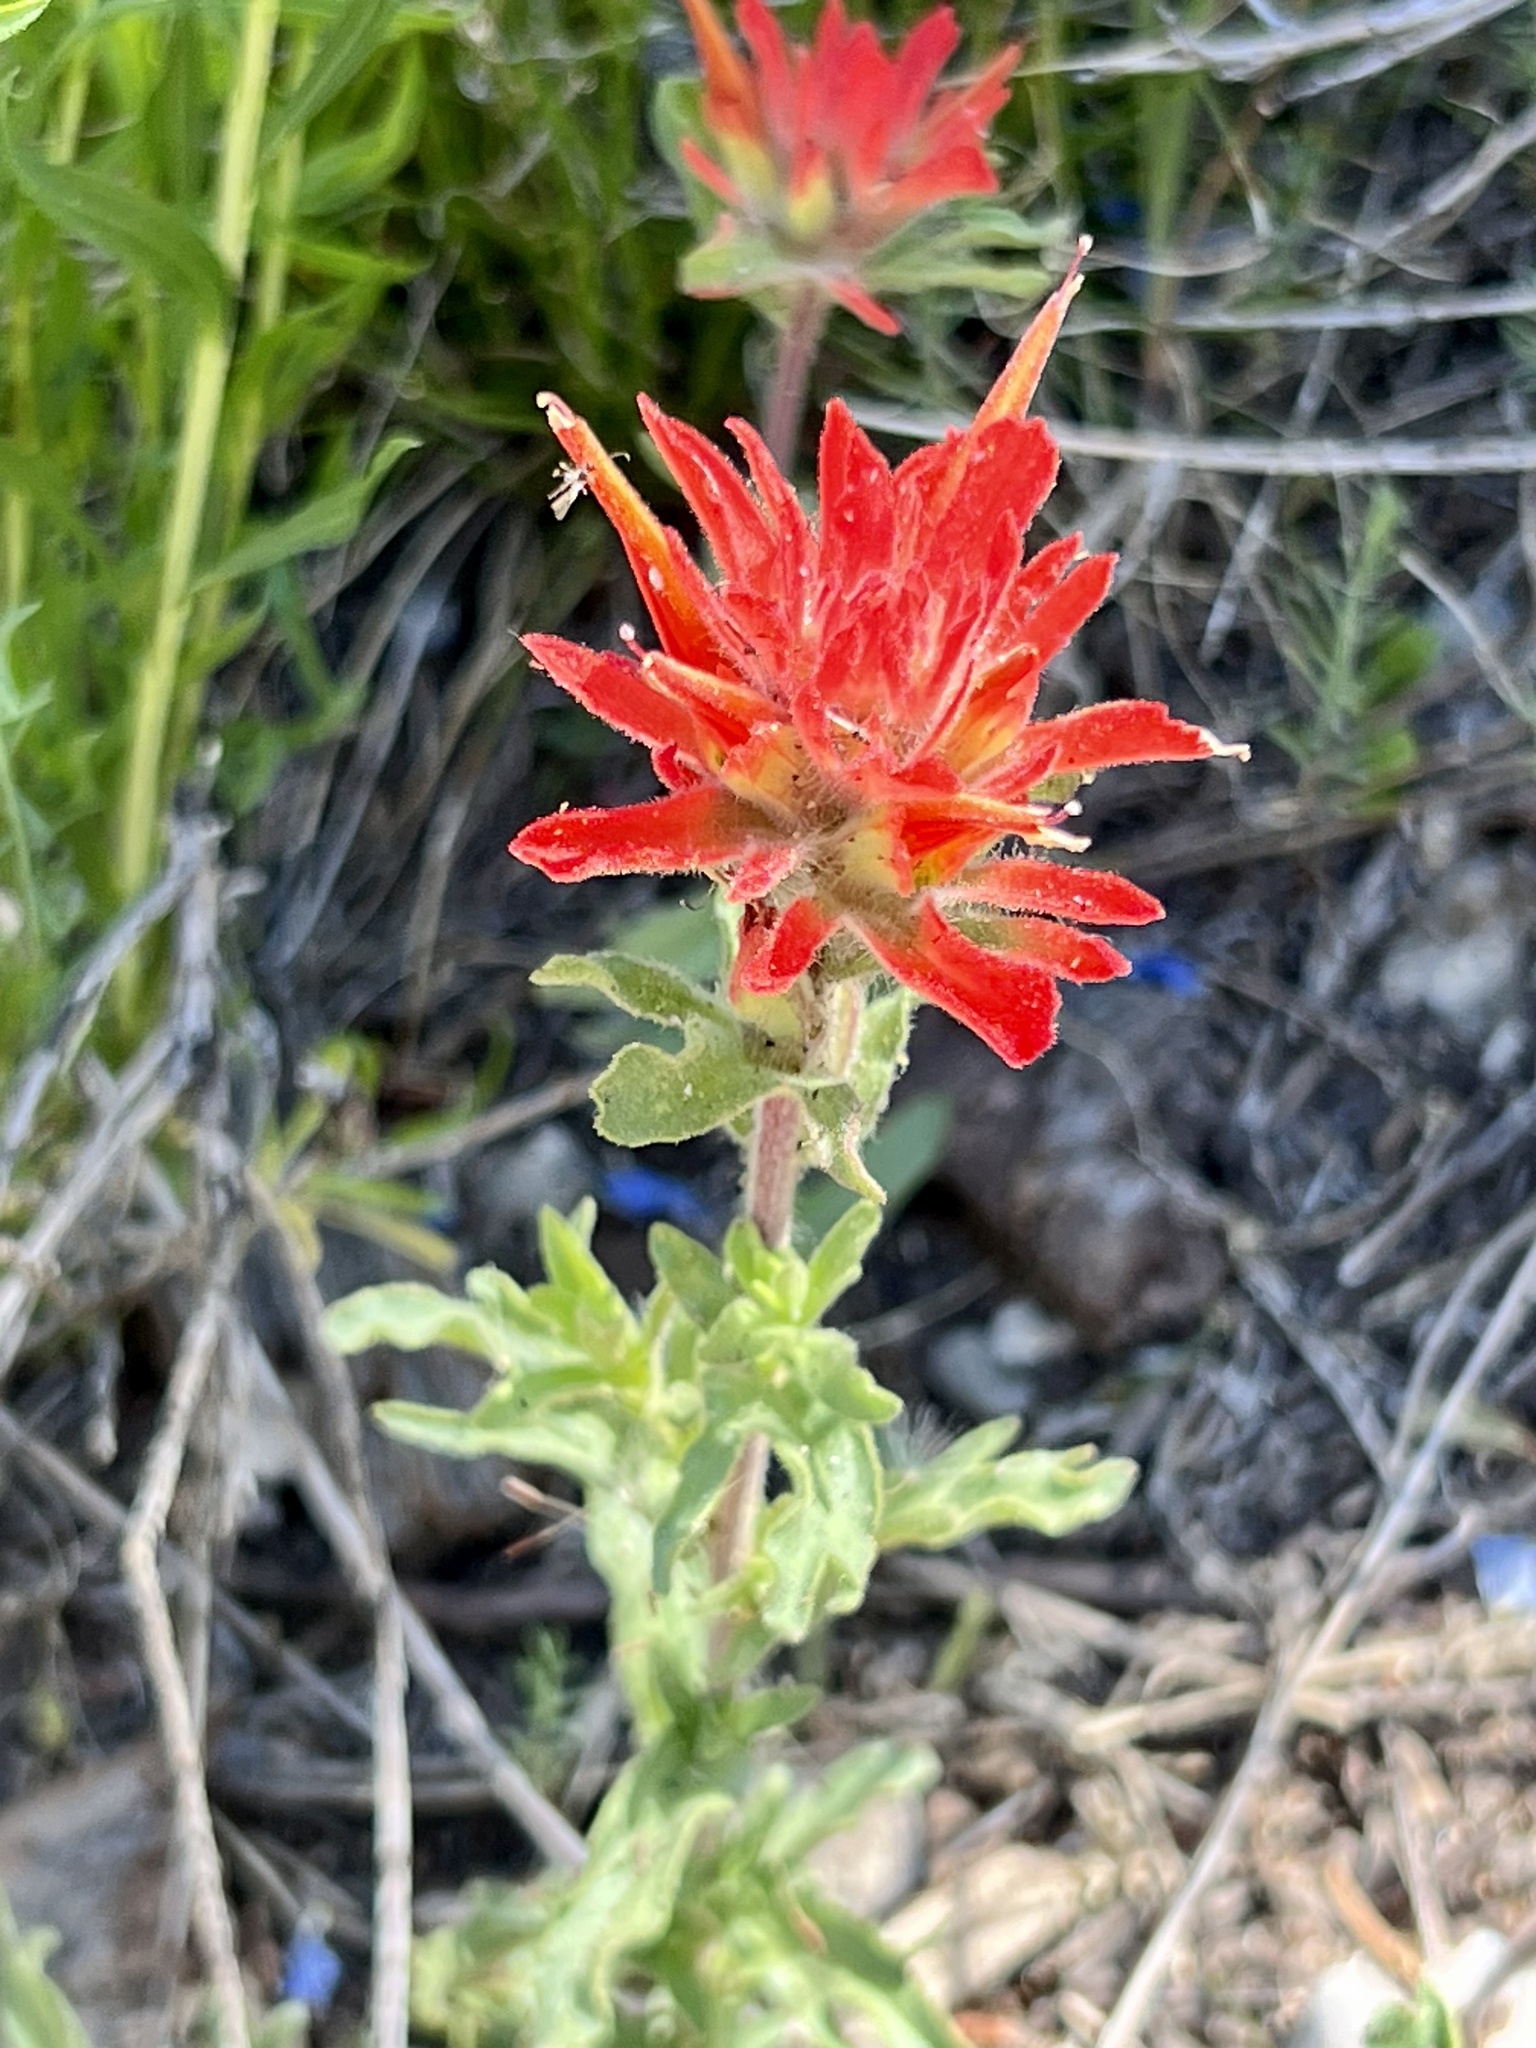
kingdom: Plantae
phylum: Tracheophyta
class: Magnoliopsida
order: Lamiales
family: Orobanchaceae
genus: Castilleja
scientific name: Castilleja martini
